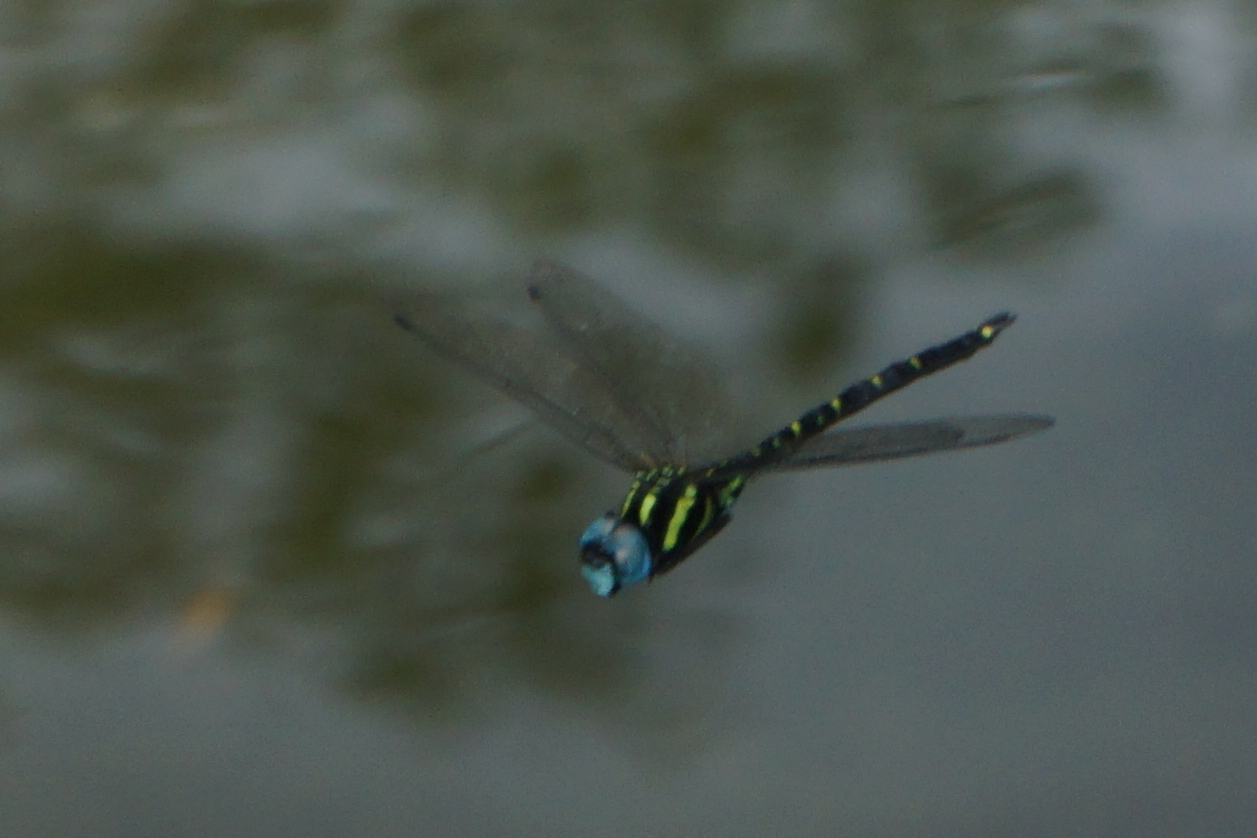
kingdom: Animalia
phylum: Arthropoda
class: Insecta
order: Odonata
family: Aeshnidae
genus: Indaeschna
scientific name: Indaeschna
